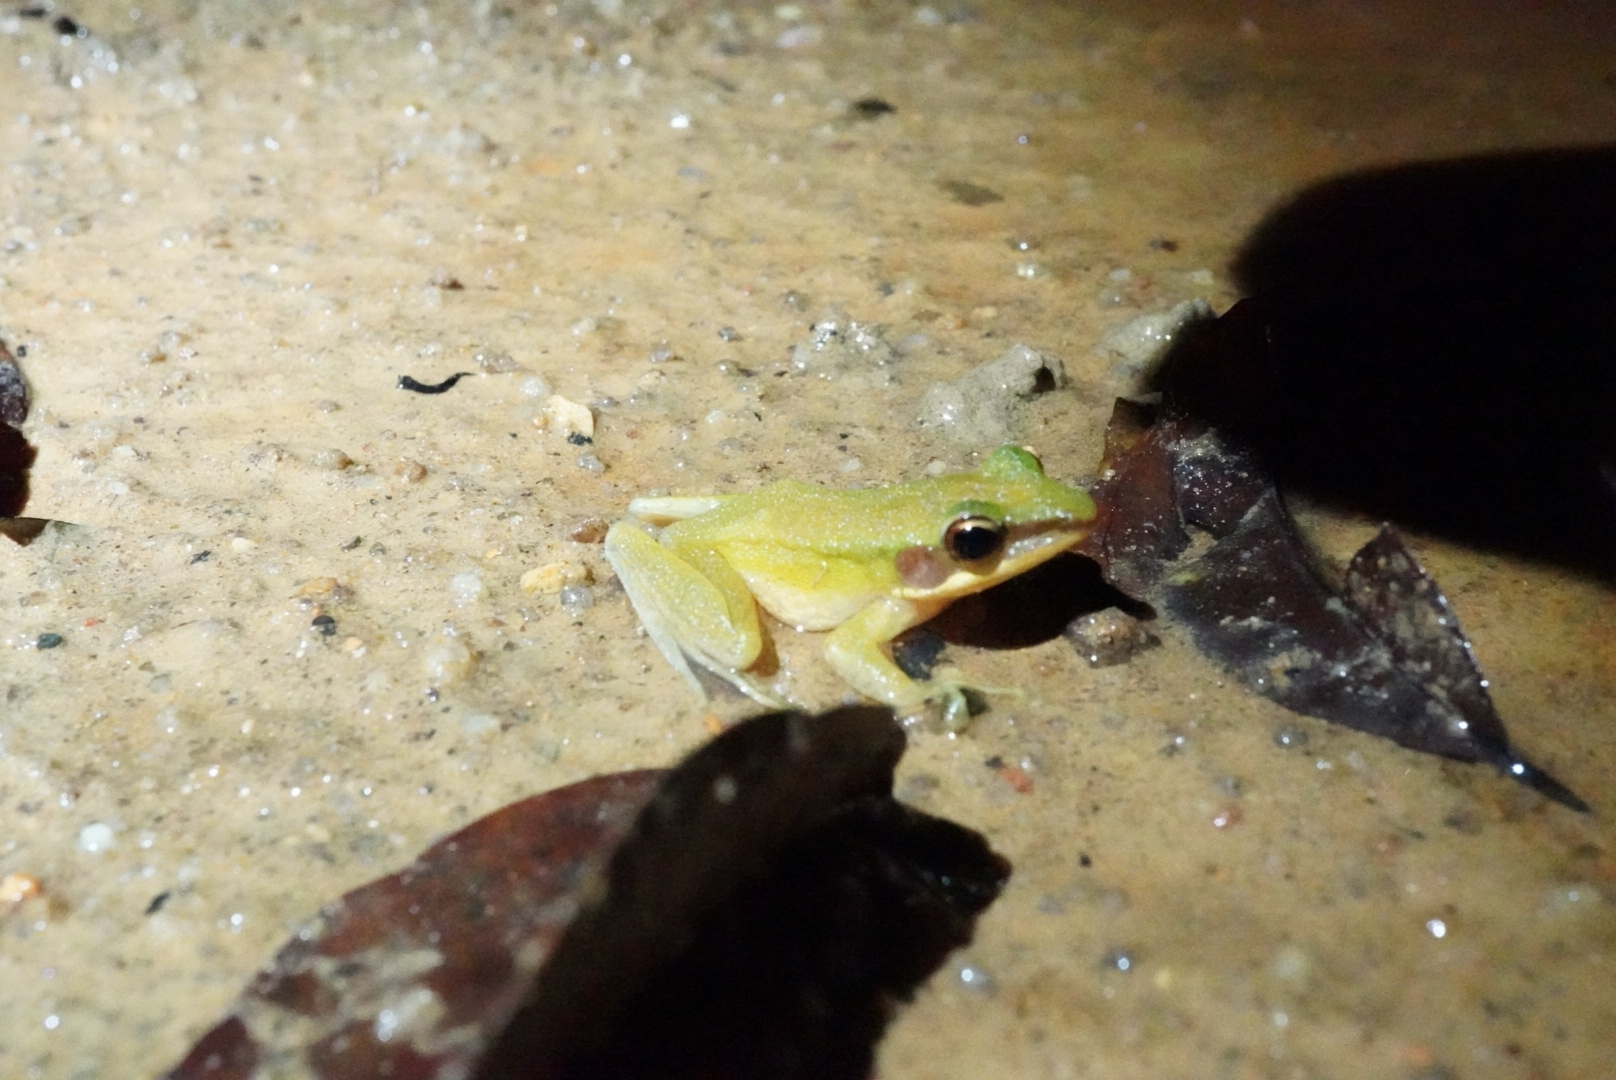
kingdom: Animalia
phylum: Chordata
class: Amphibia
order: Anura
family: Ranidae
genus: Chalcorana
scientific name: Chalcorana eschatia
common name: Tenasserim white-lipped frog
